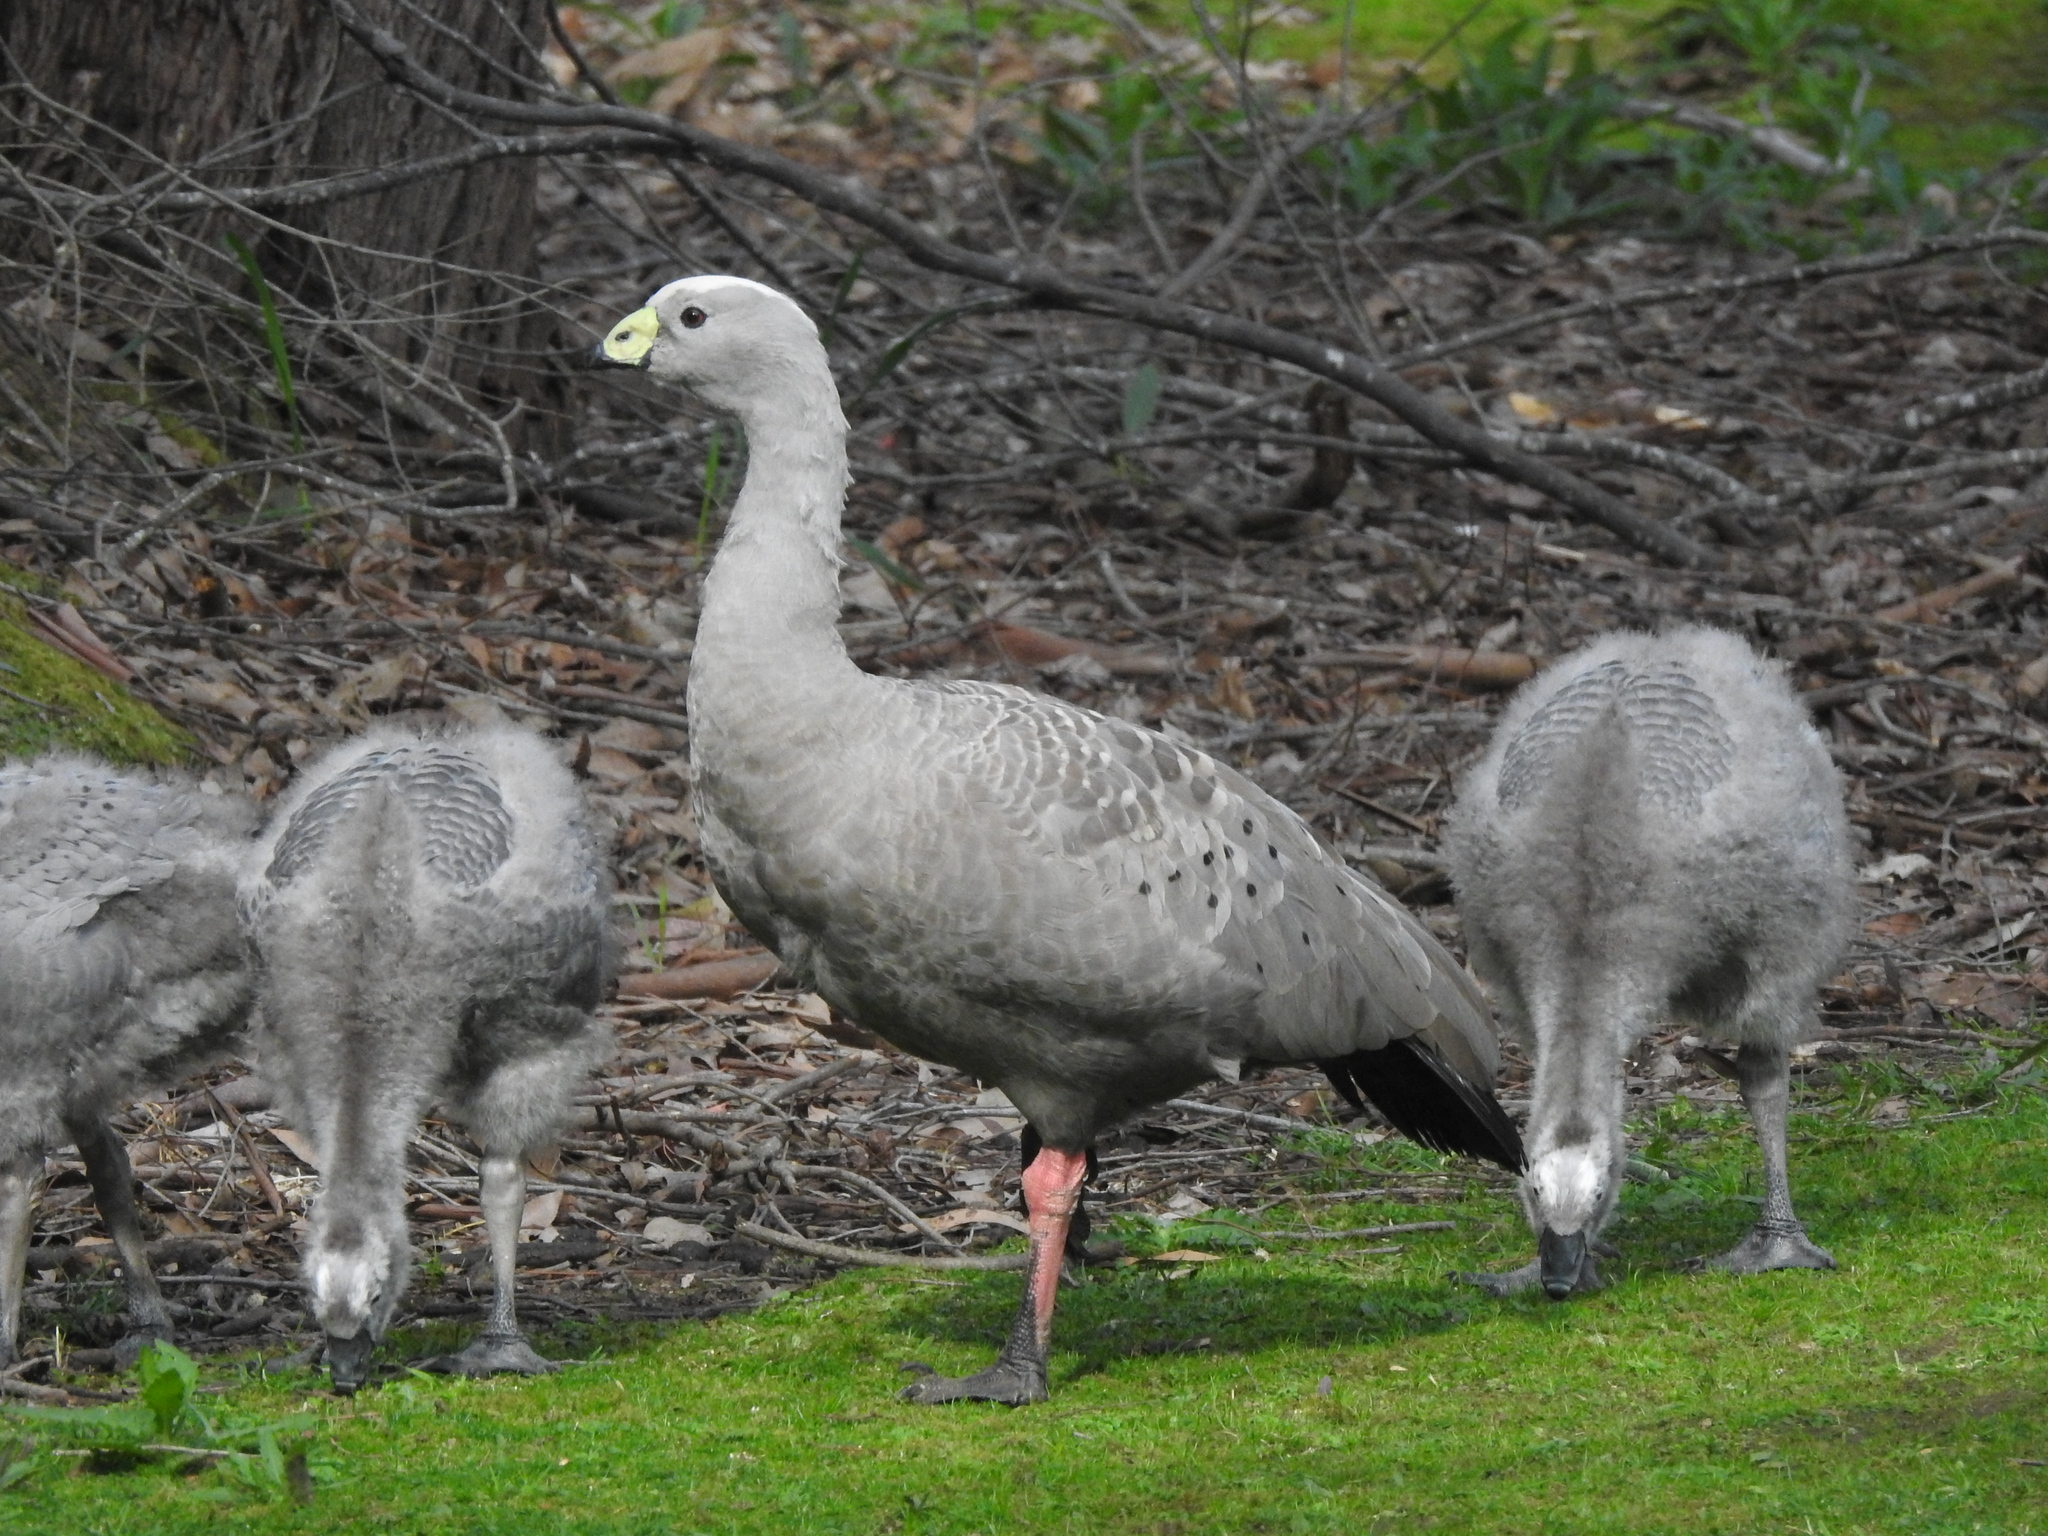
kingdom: Animalia
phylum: Chordata
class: Aves
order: Anseriformes
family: Anatidae
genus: Cereopsis
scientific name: Cereopsis novaehollandiae
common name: Cape barren goose
